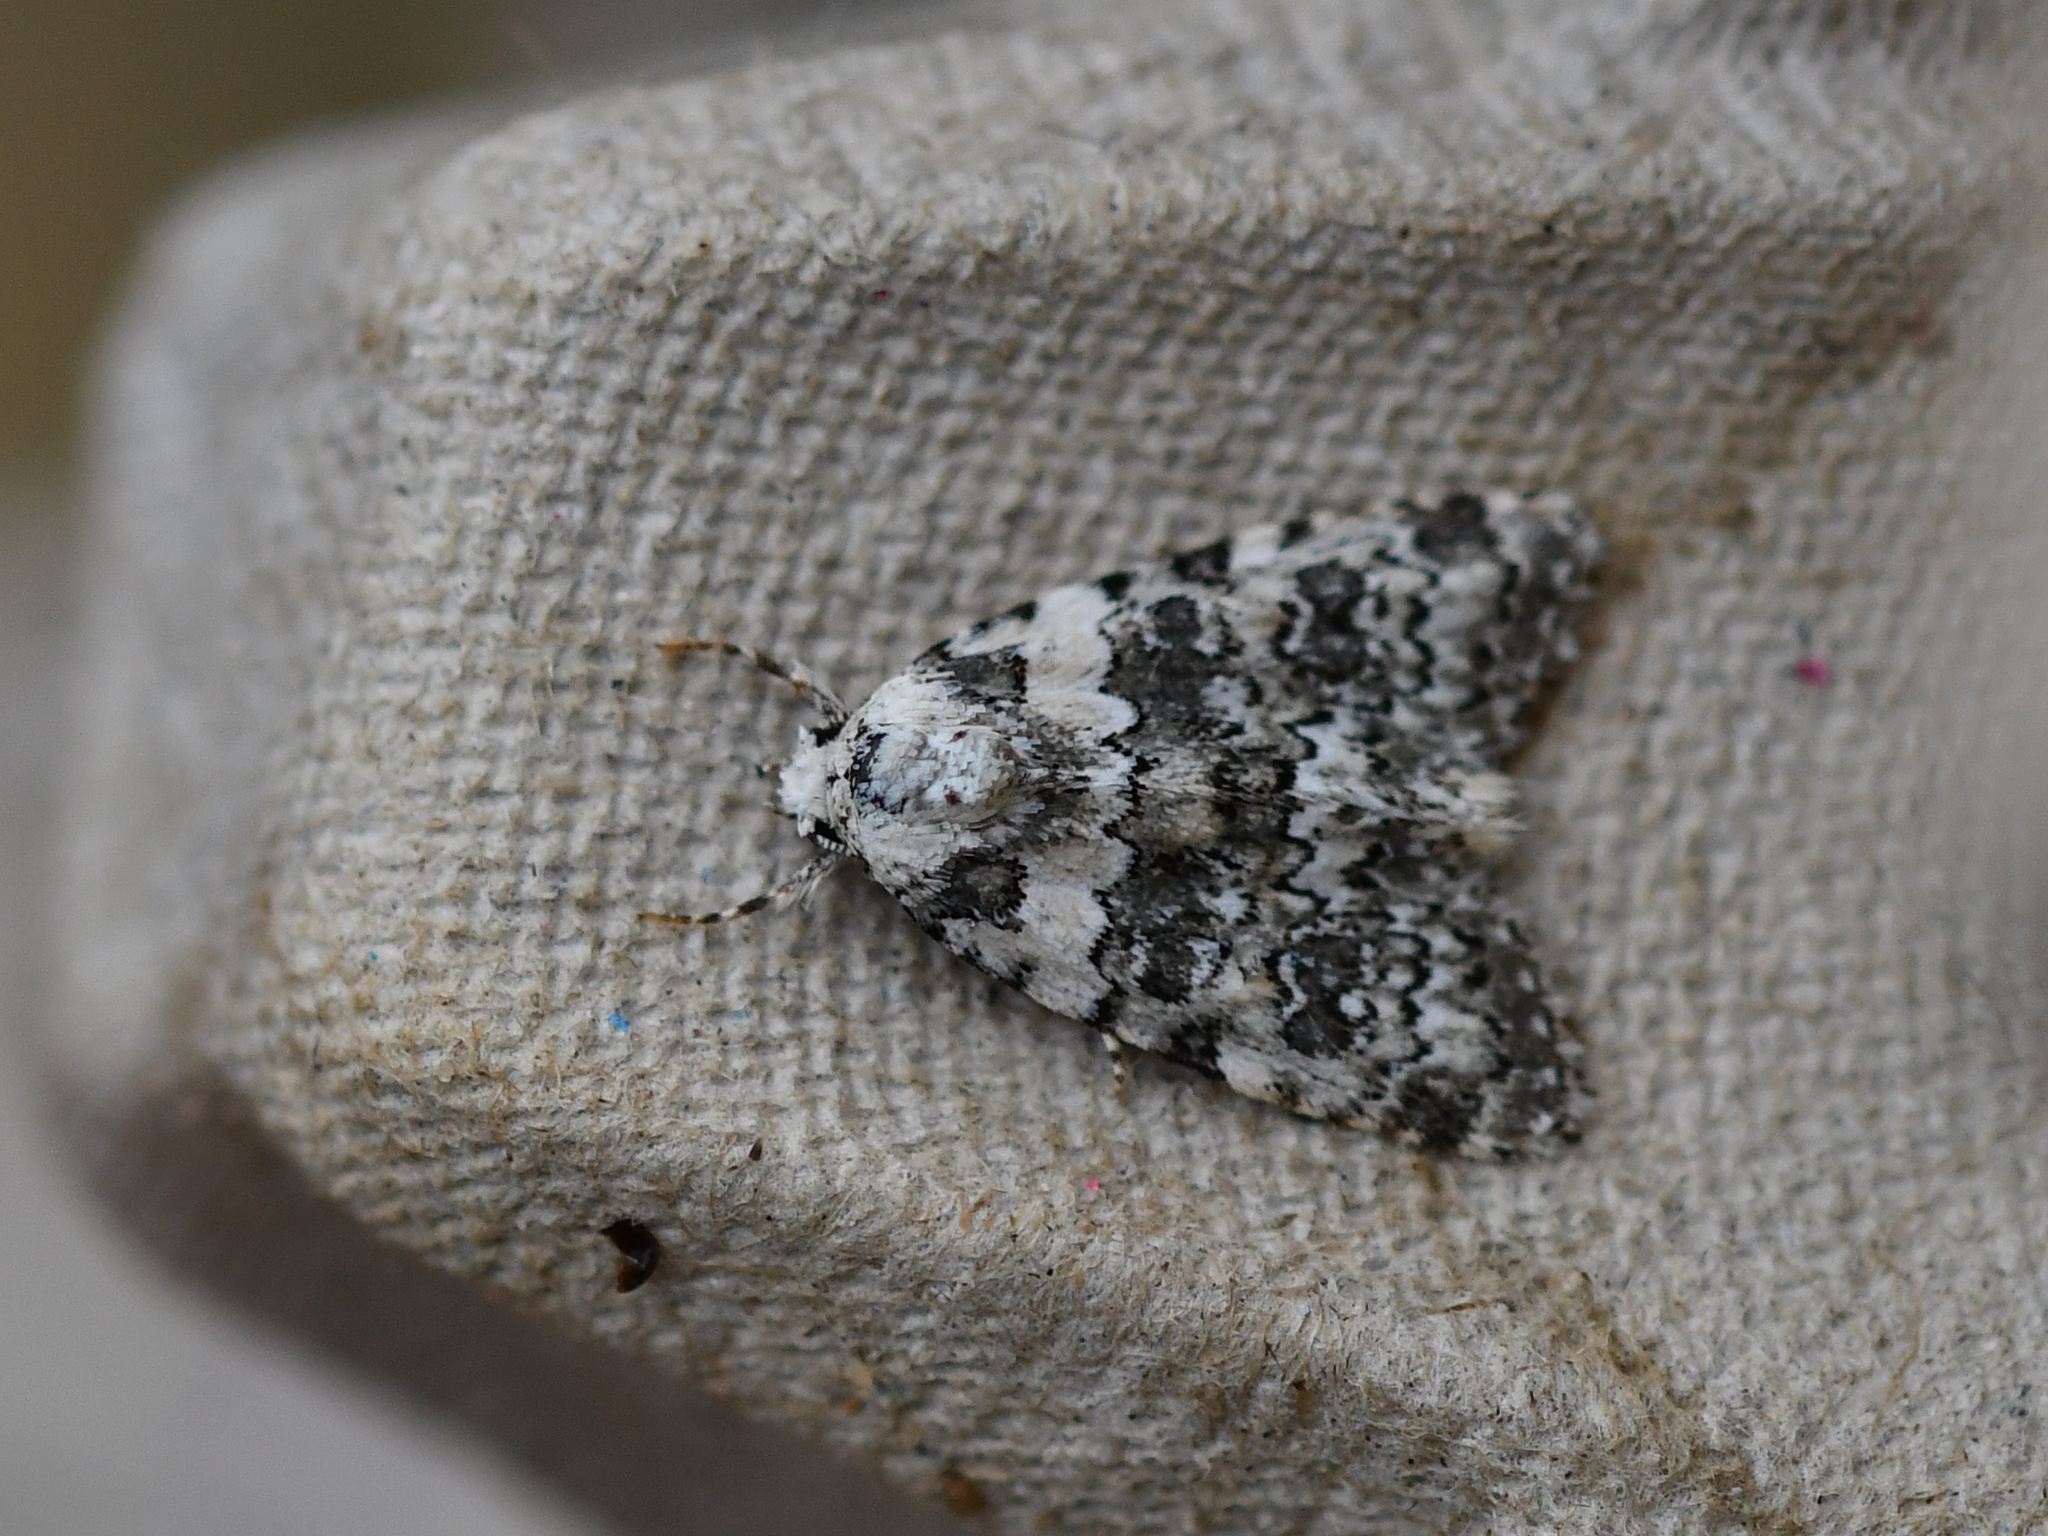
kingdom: Animalia
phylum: Arthropoda
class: Insecta
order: Lepidoptera
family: Noctuidae
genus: Bryophila
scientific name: Bryophila domestica
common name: Marbled beauty
